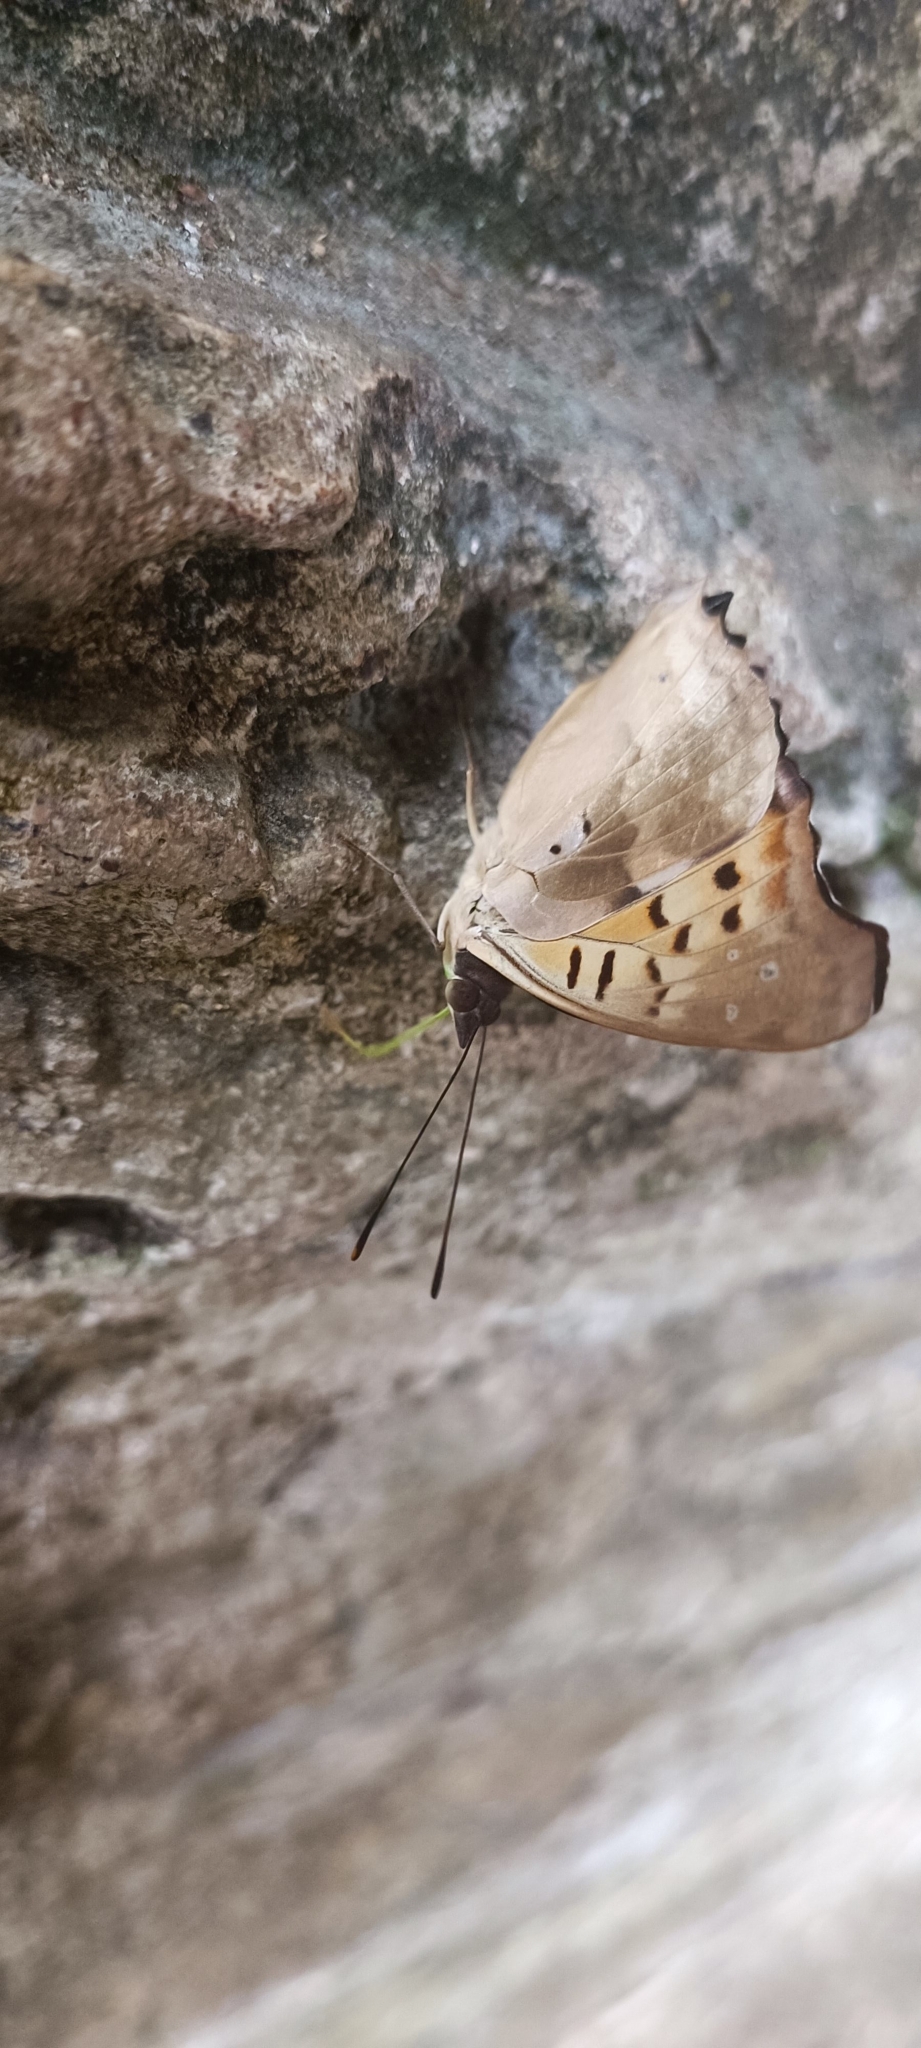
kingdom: Animalia
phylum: Arthropoda
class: Insecta
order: Lepidoptera
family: Nymphalidae
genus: Doxocopa
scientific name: Doxocopa laurentia
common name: Turquoise emperor
